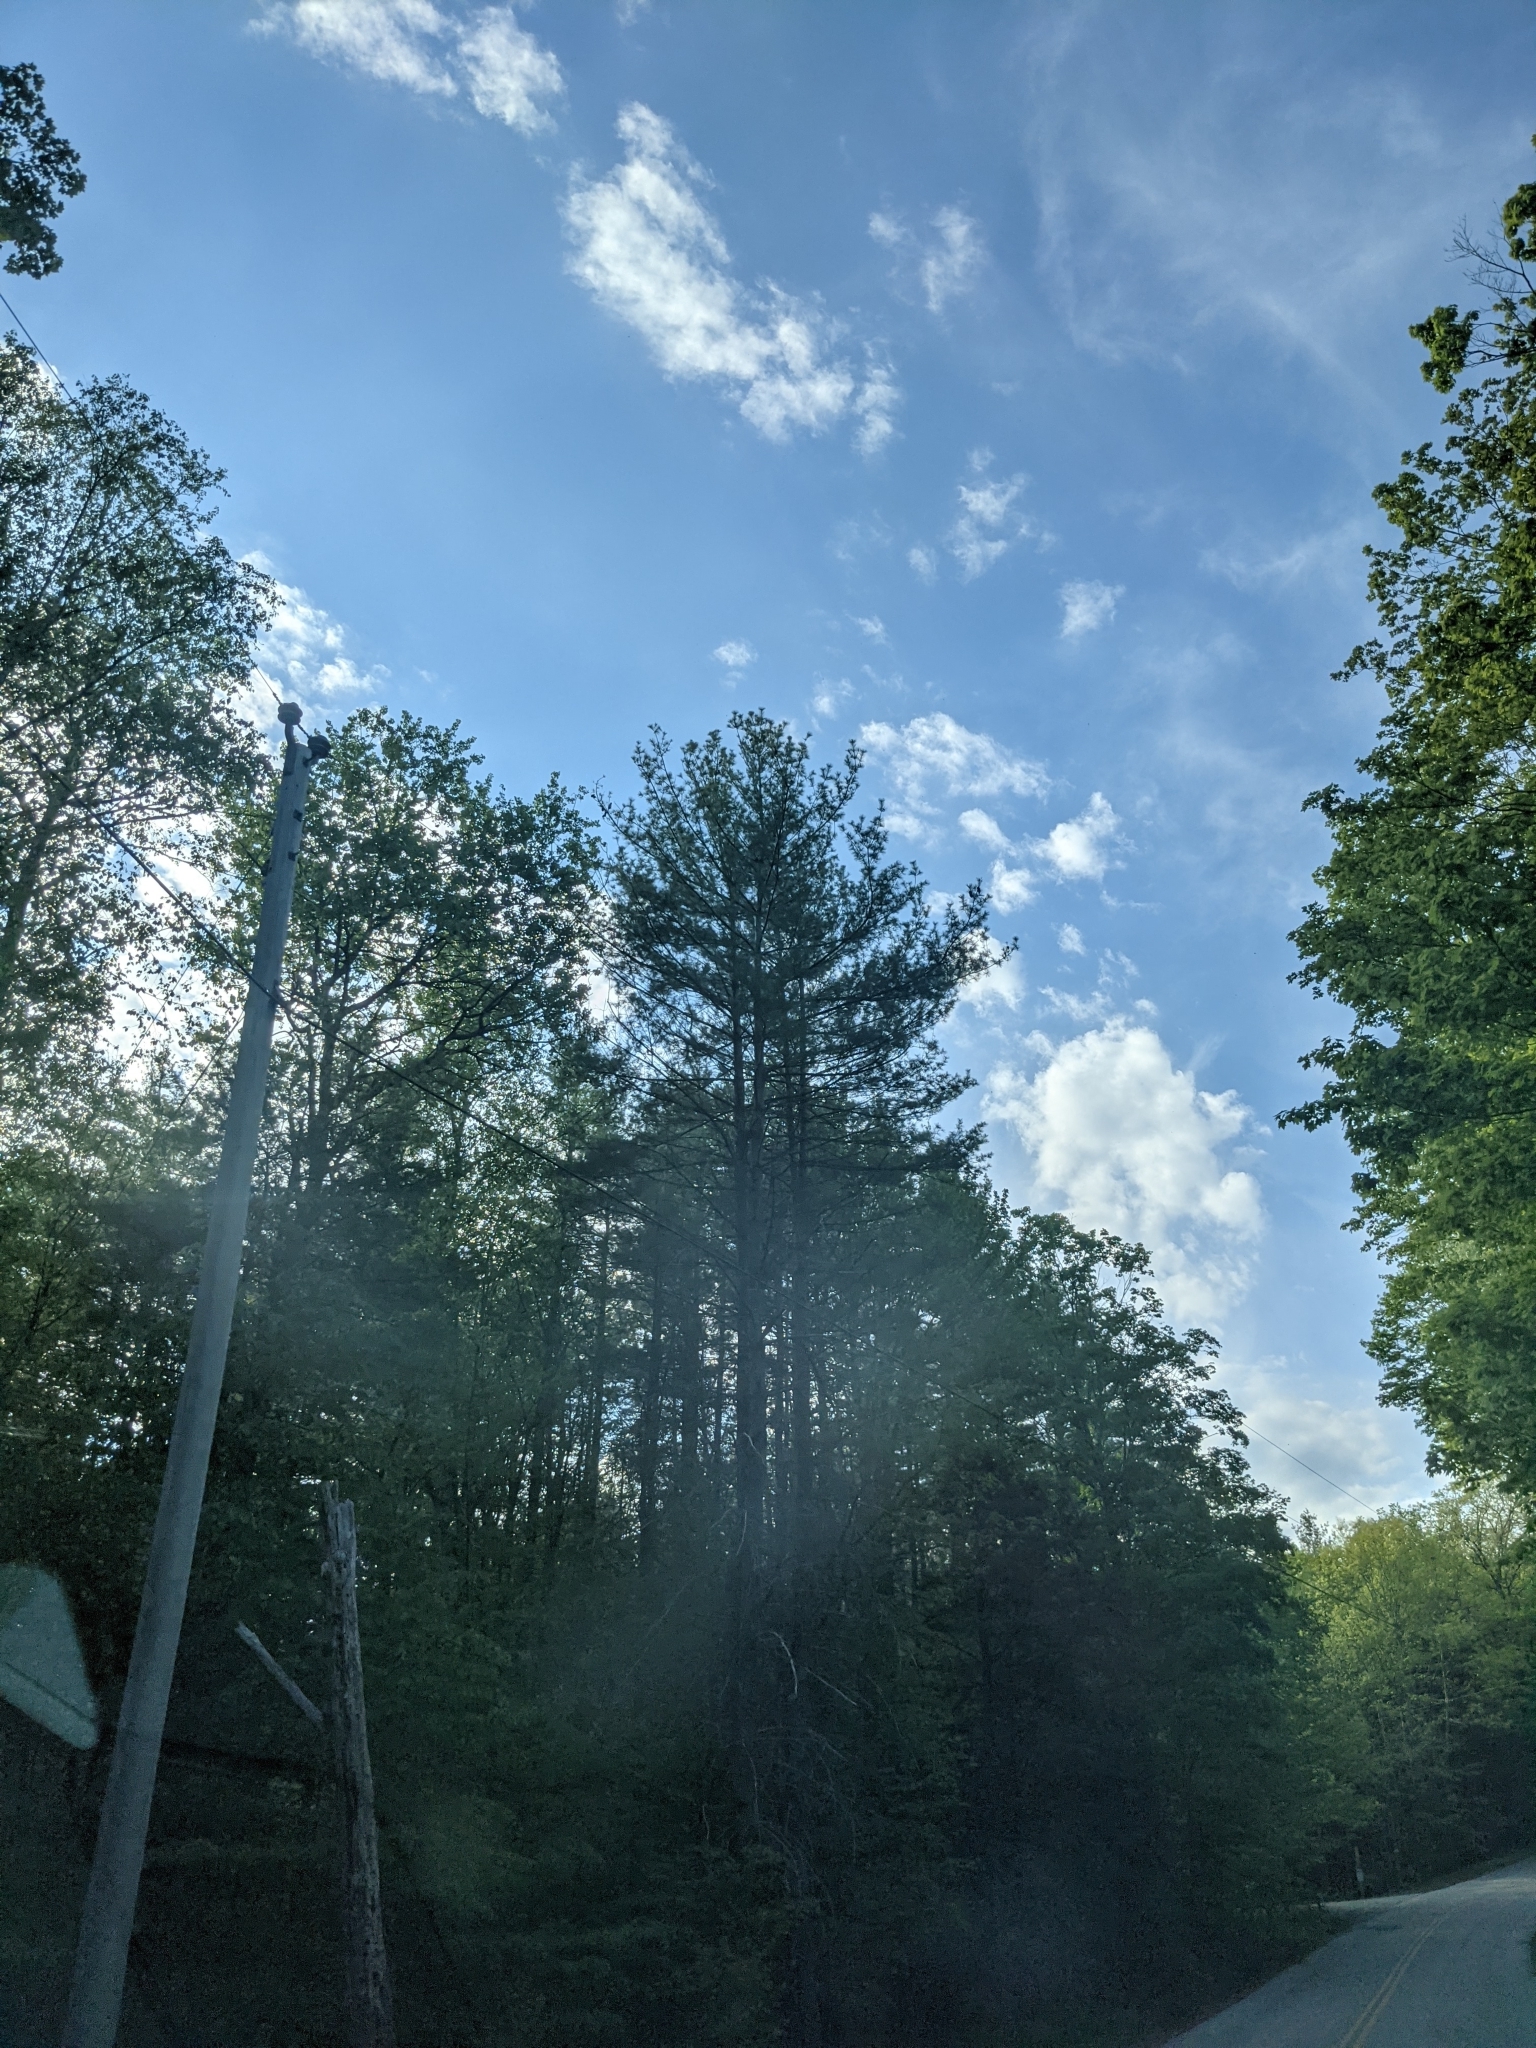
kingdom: Plantae
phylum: Tracheophyta
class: Pinopsida
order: Pinales
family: Pinaceae
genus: Pinus
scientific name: Pinus strobus
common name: Weymouth pine
